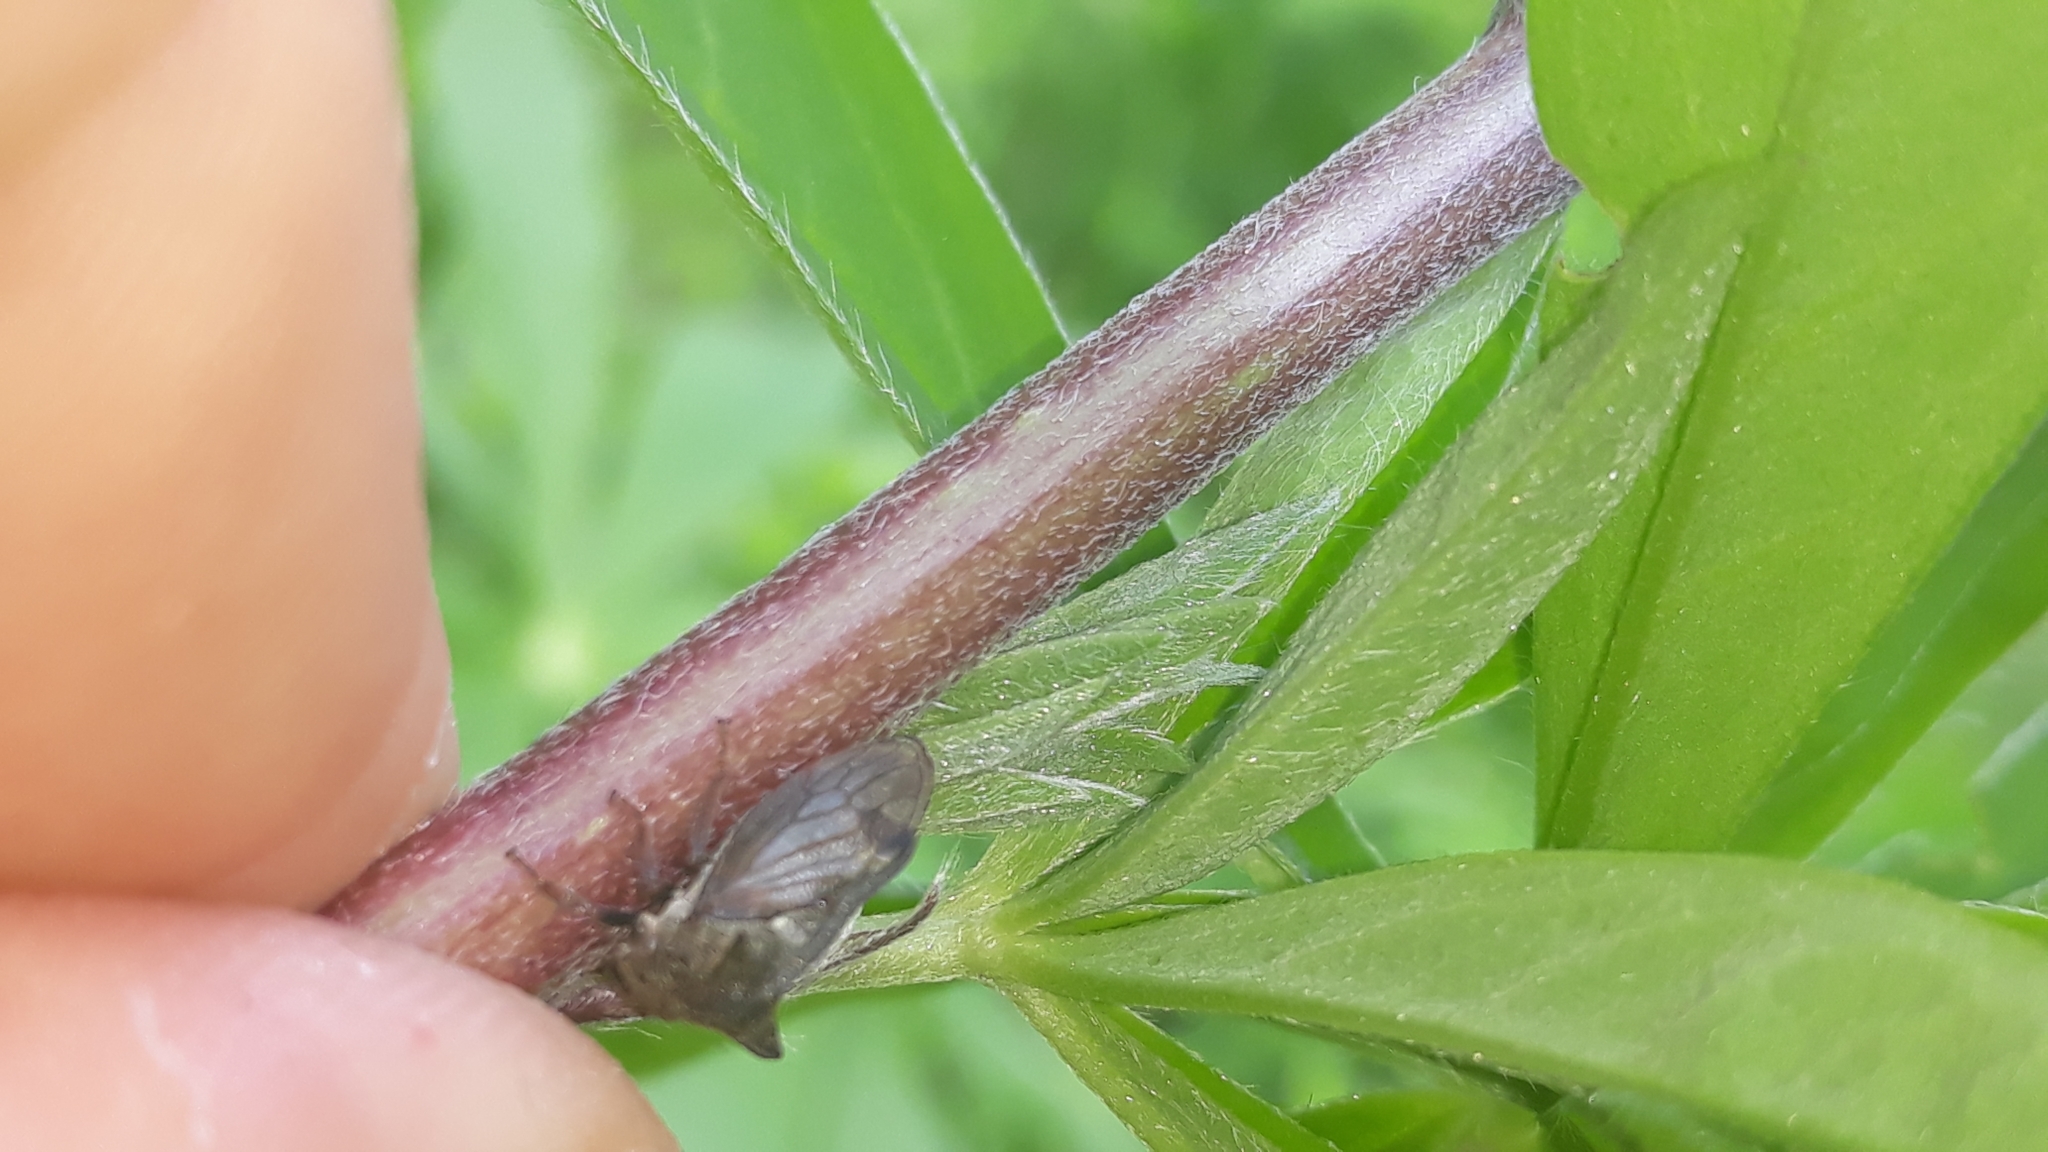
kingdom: Animalia
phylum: Arthropoda
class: Insecta
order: Hemiptera
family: Membracidae
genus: Centrotus
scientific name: Centrotus cornuta
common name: Treehopper
